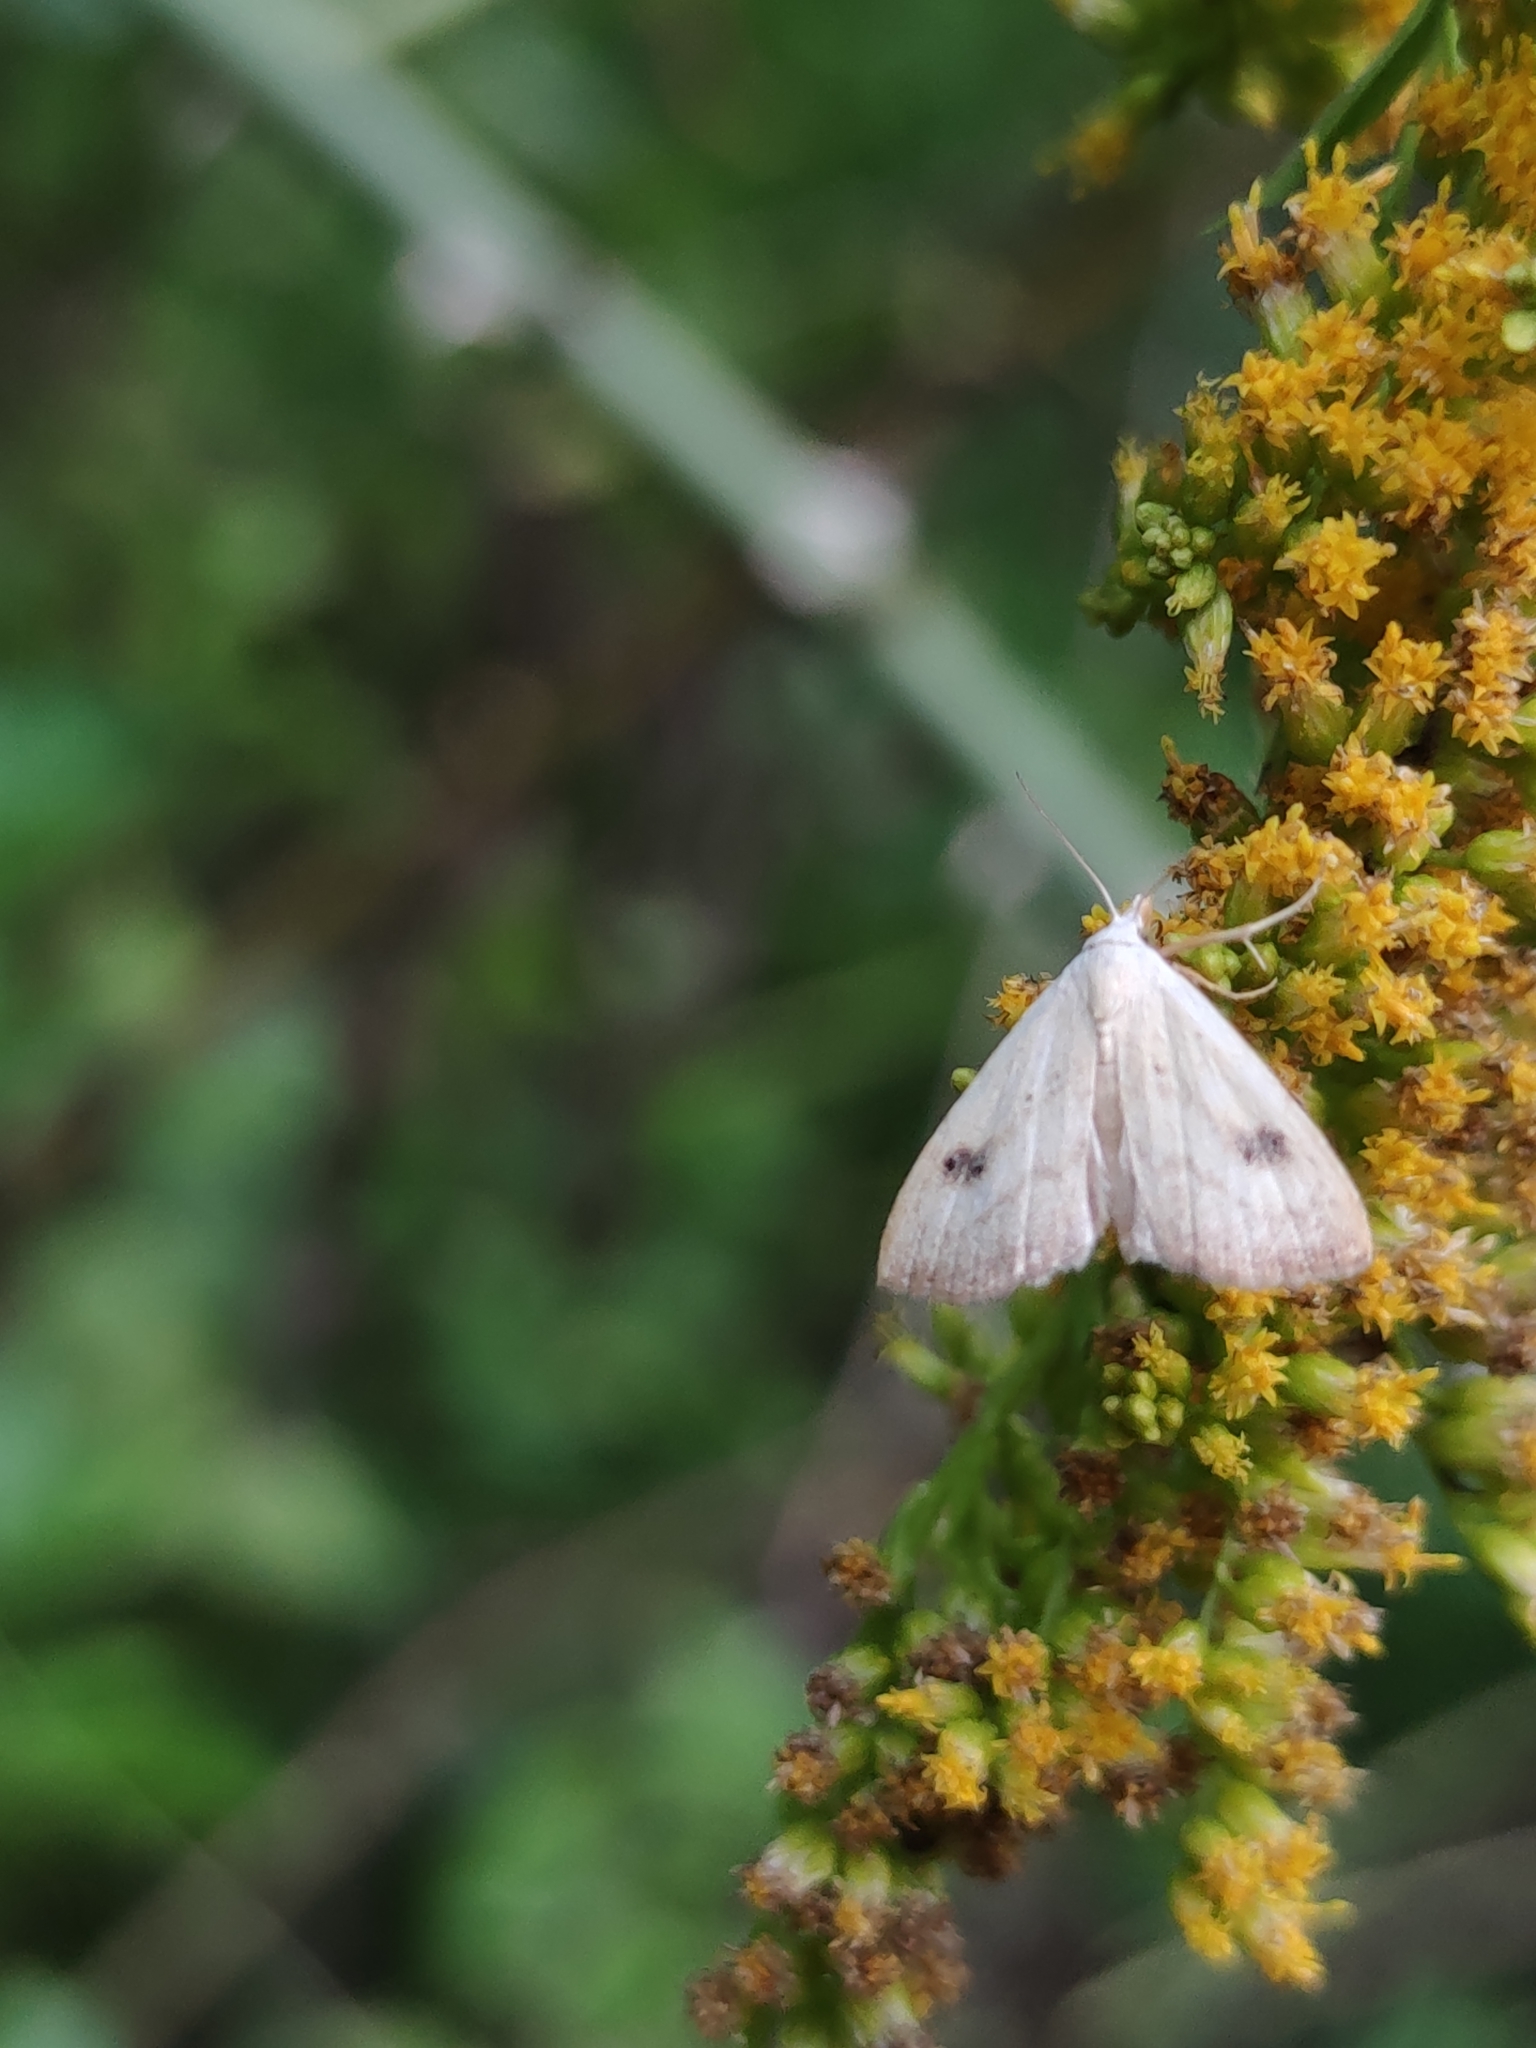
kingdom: Animalia
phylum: Arthropoda
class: Insecta
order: Lepidoptera
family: Erebidae
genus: Rivula
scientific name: Rivula sericealis
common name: Straw dot
